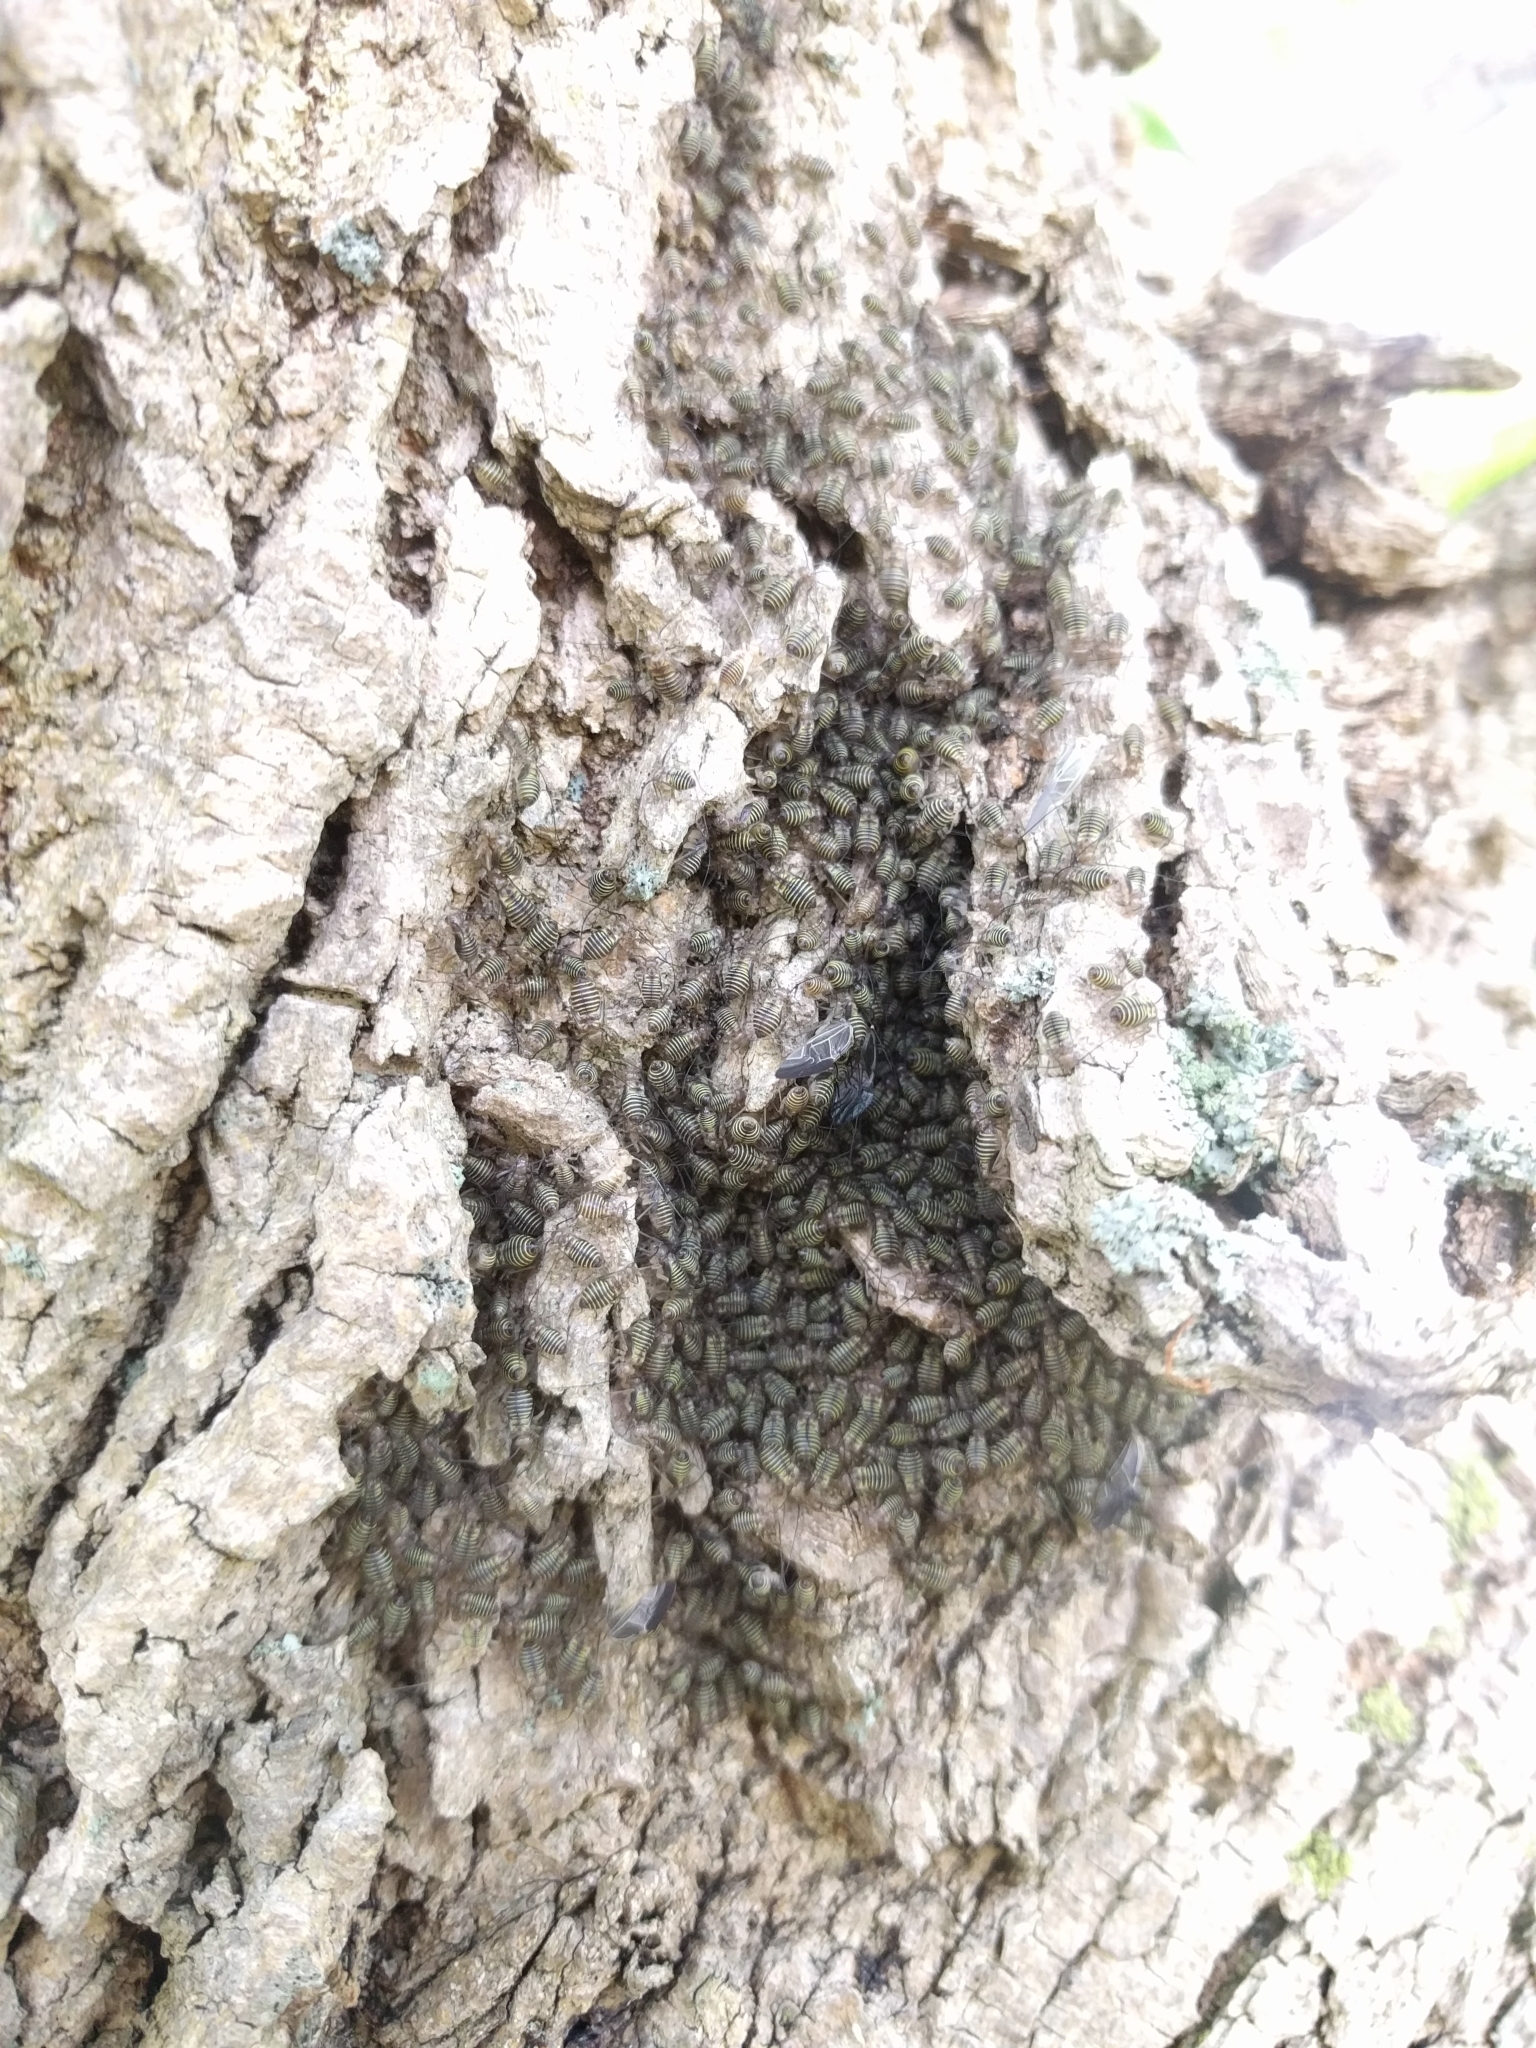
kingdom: Animalia
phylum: Arthropoda
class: Insecta
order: Psocodea
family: Psocidae
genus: Cerastipsocus
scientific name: Cerastipsocus venosus
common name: Tree cattle
